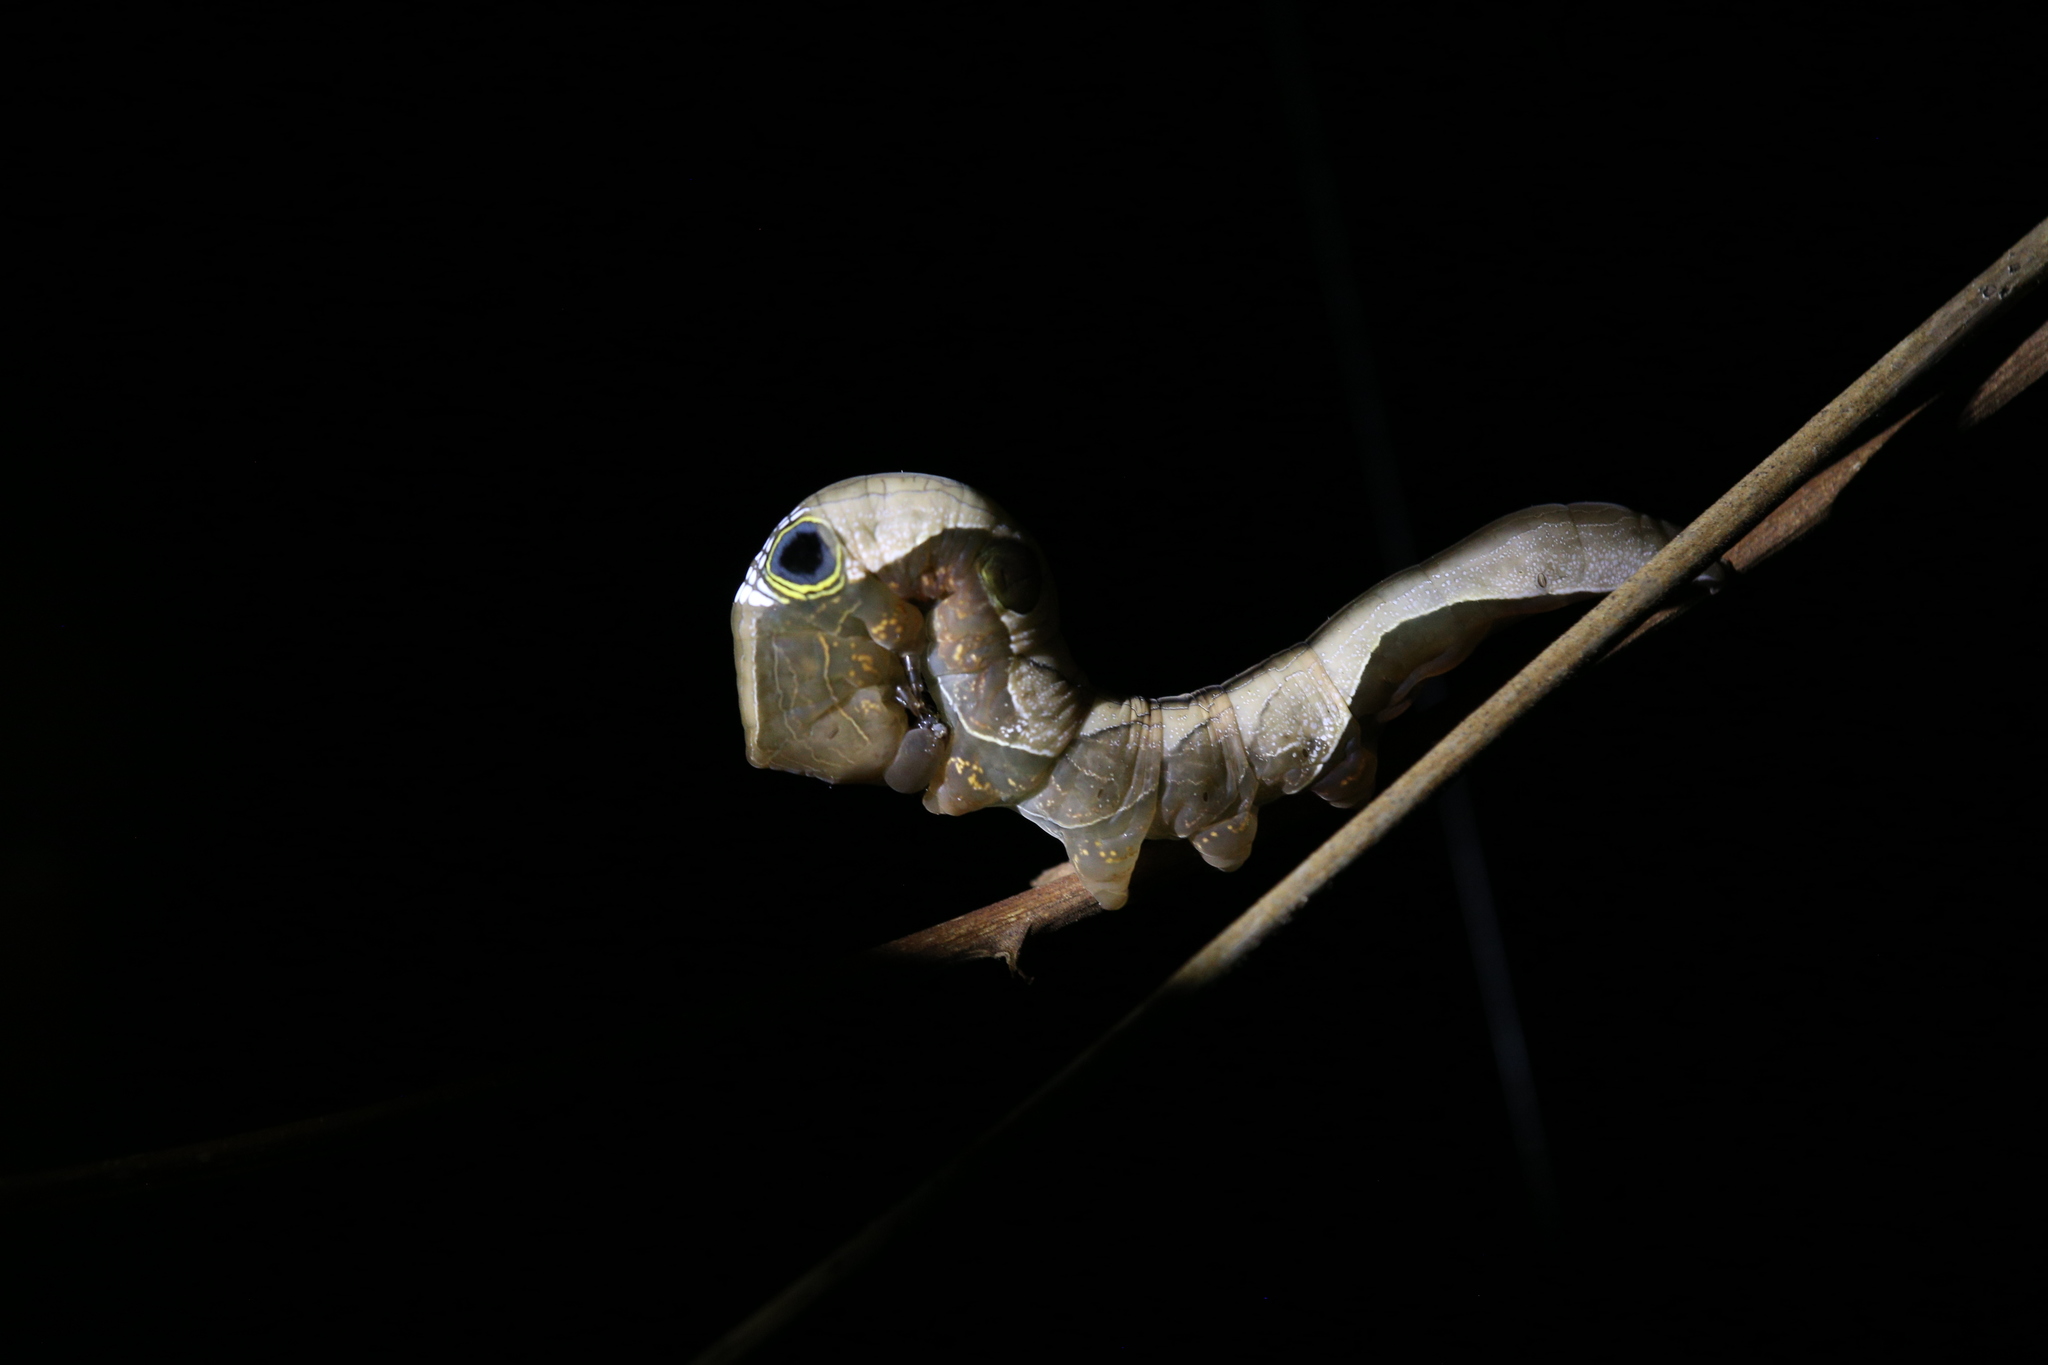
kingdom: Animalia
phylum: Arthropoda
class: Insecta
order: Lepidoptera
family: Erebidae
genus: Phyllodes
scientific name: Phyllodes imperialis
